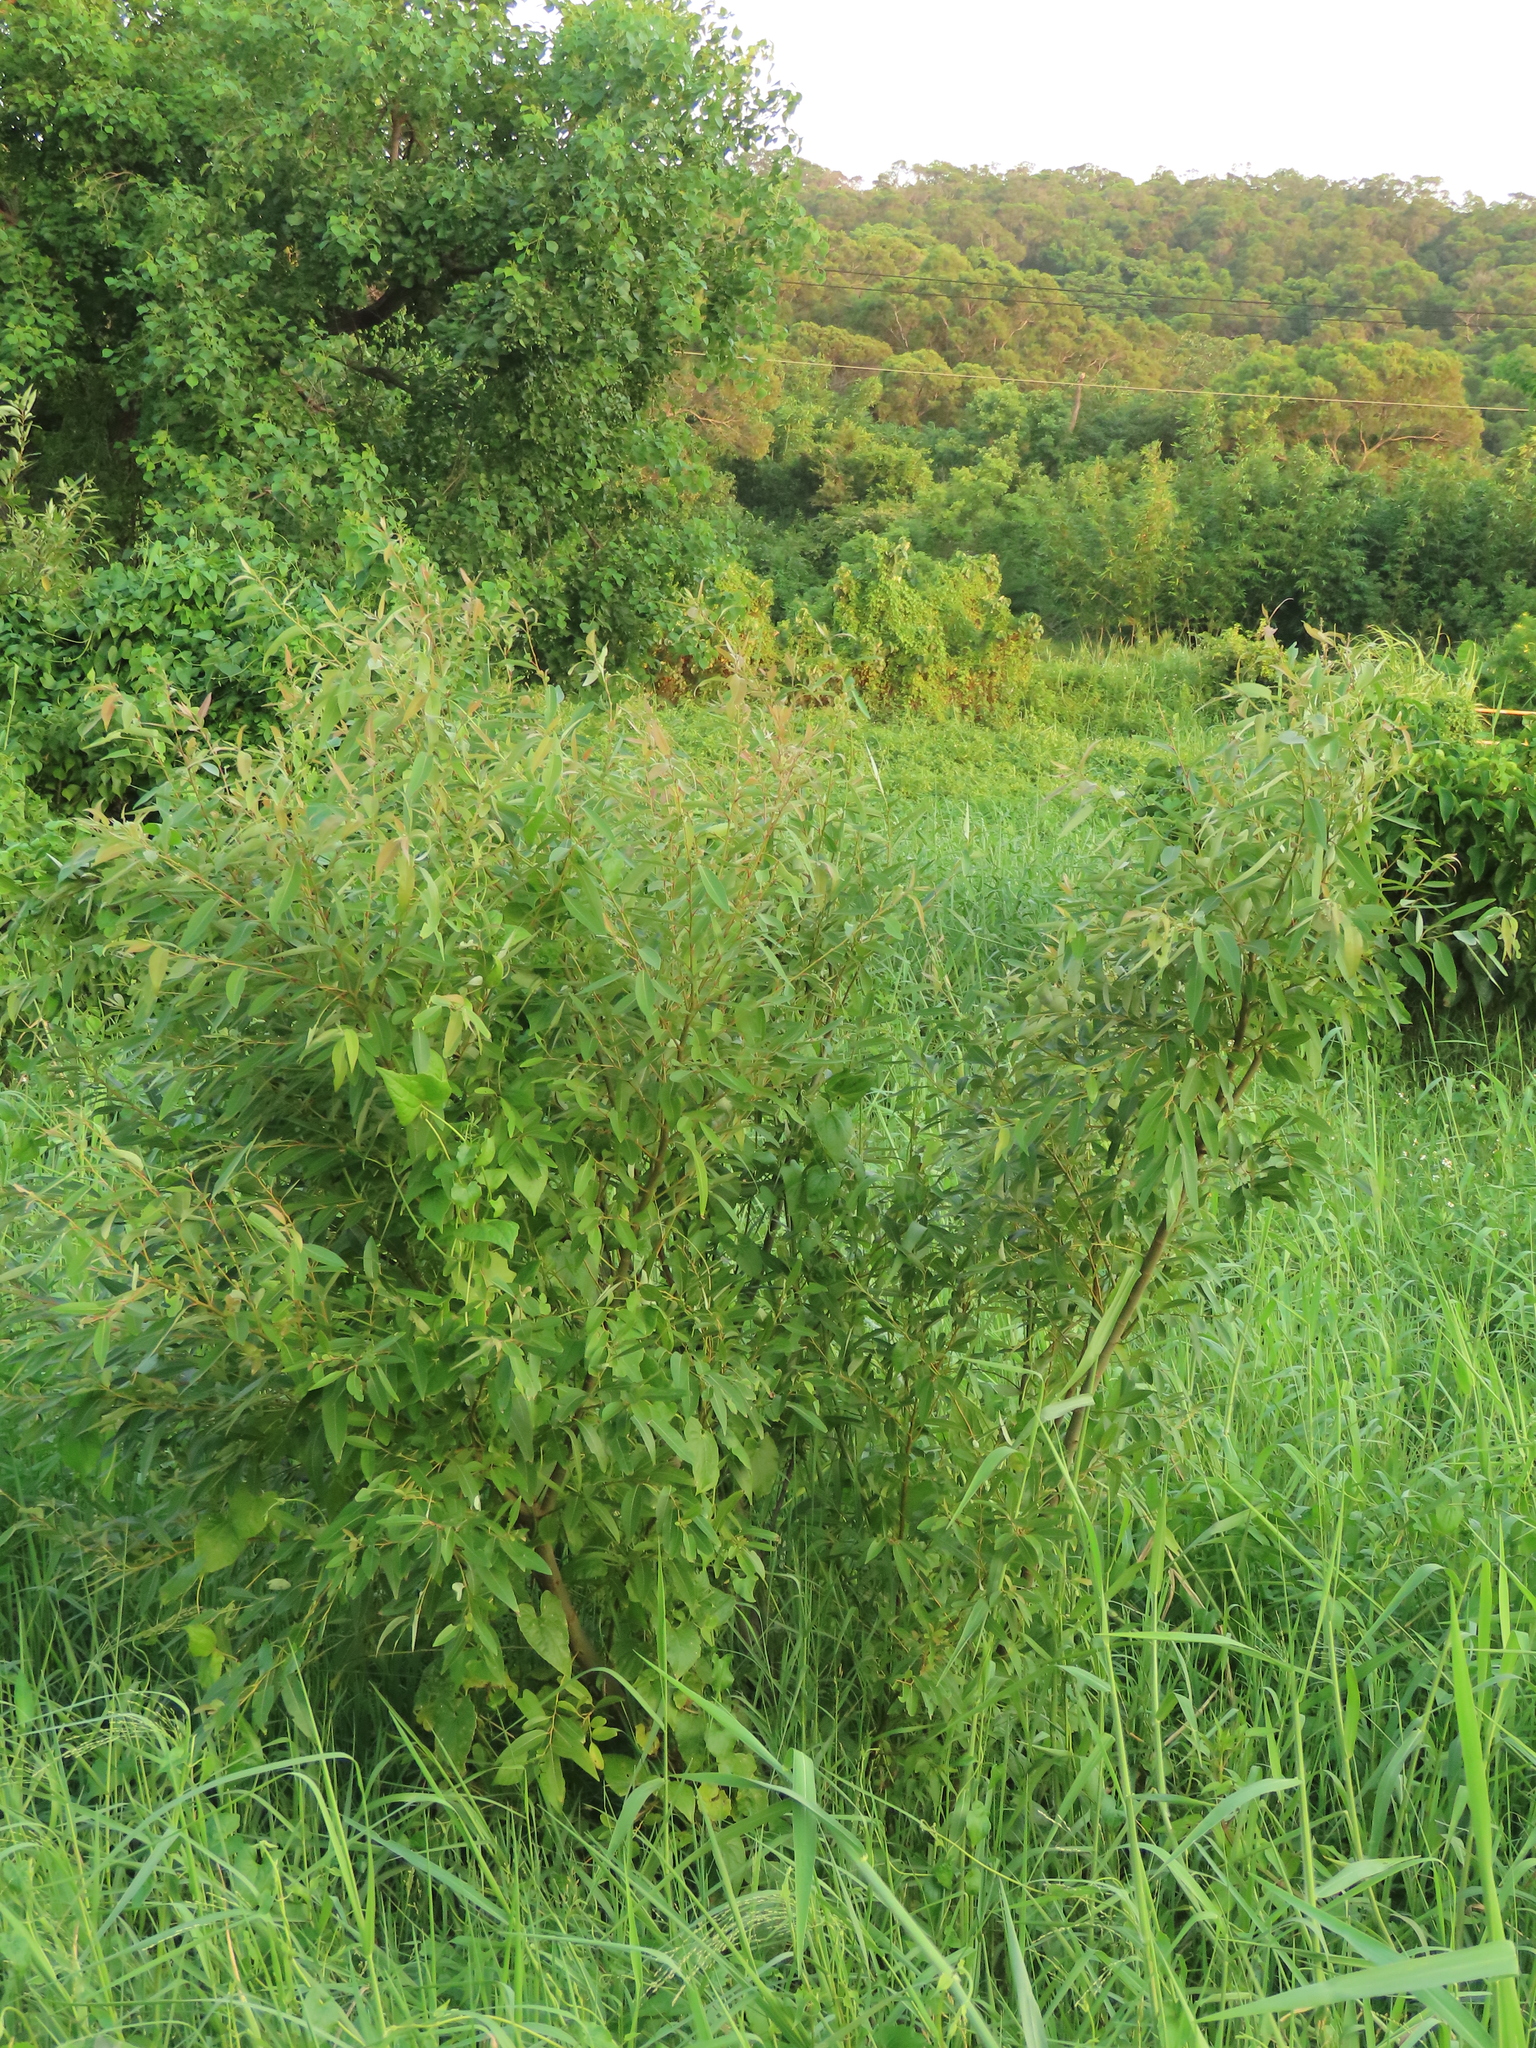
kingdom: Plantae
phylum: Tracheophyta
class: Magnoliopsida
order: Malpighiales
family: Salicaceae
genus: Salix
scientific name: Salix mesnyi
